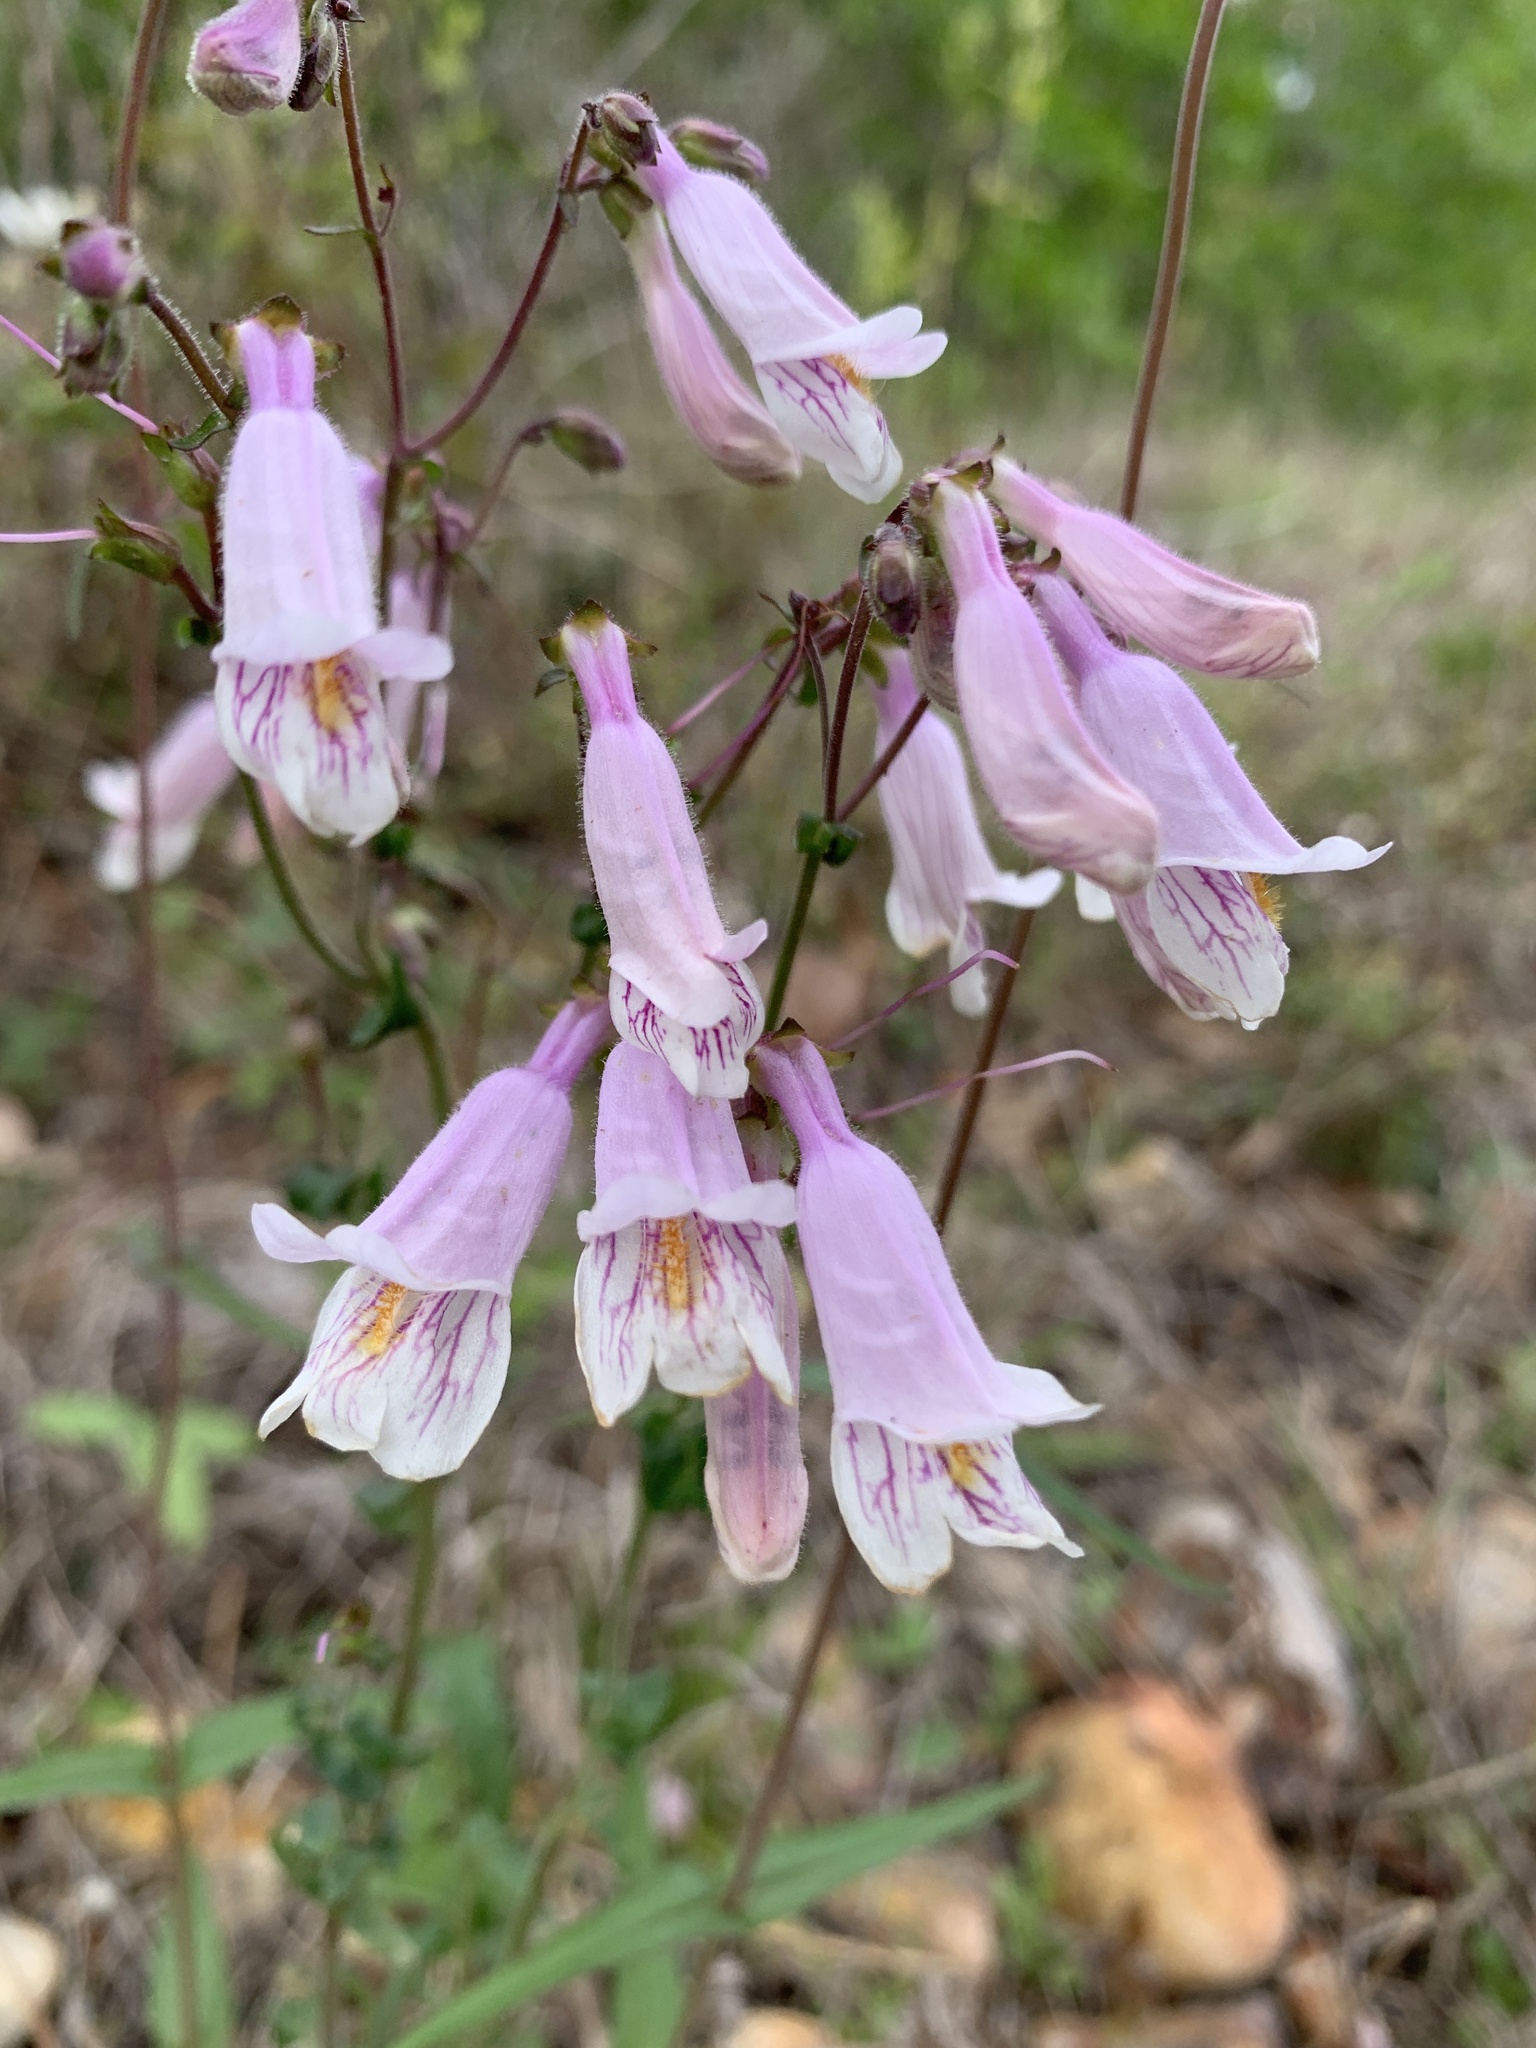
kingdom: Plantae
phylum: Tracheophyta
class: Magnoliopsida
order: Lamiales
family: Plantaginaceae
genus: Penstemon
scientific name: Penstemon laxiflorus
